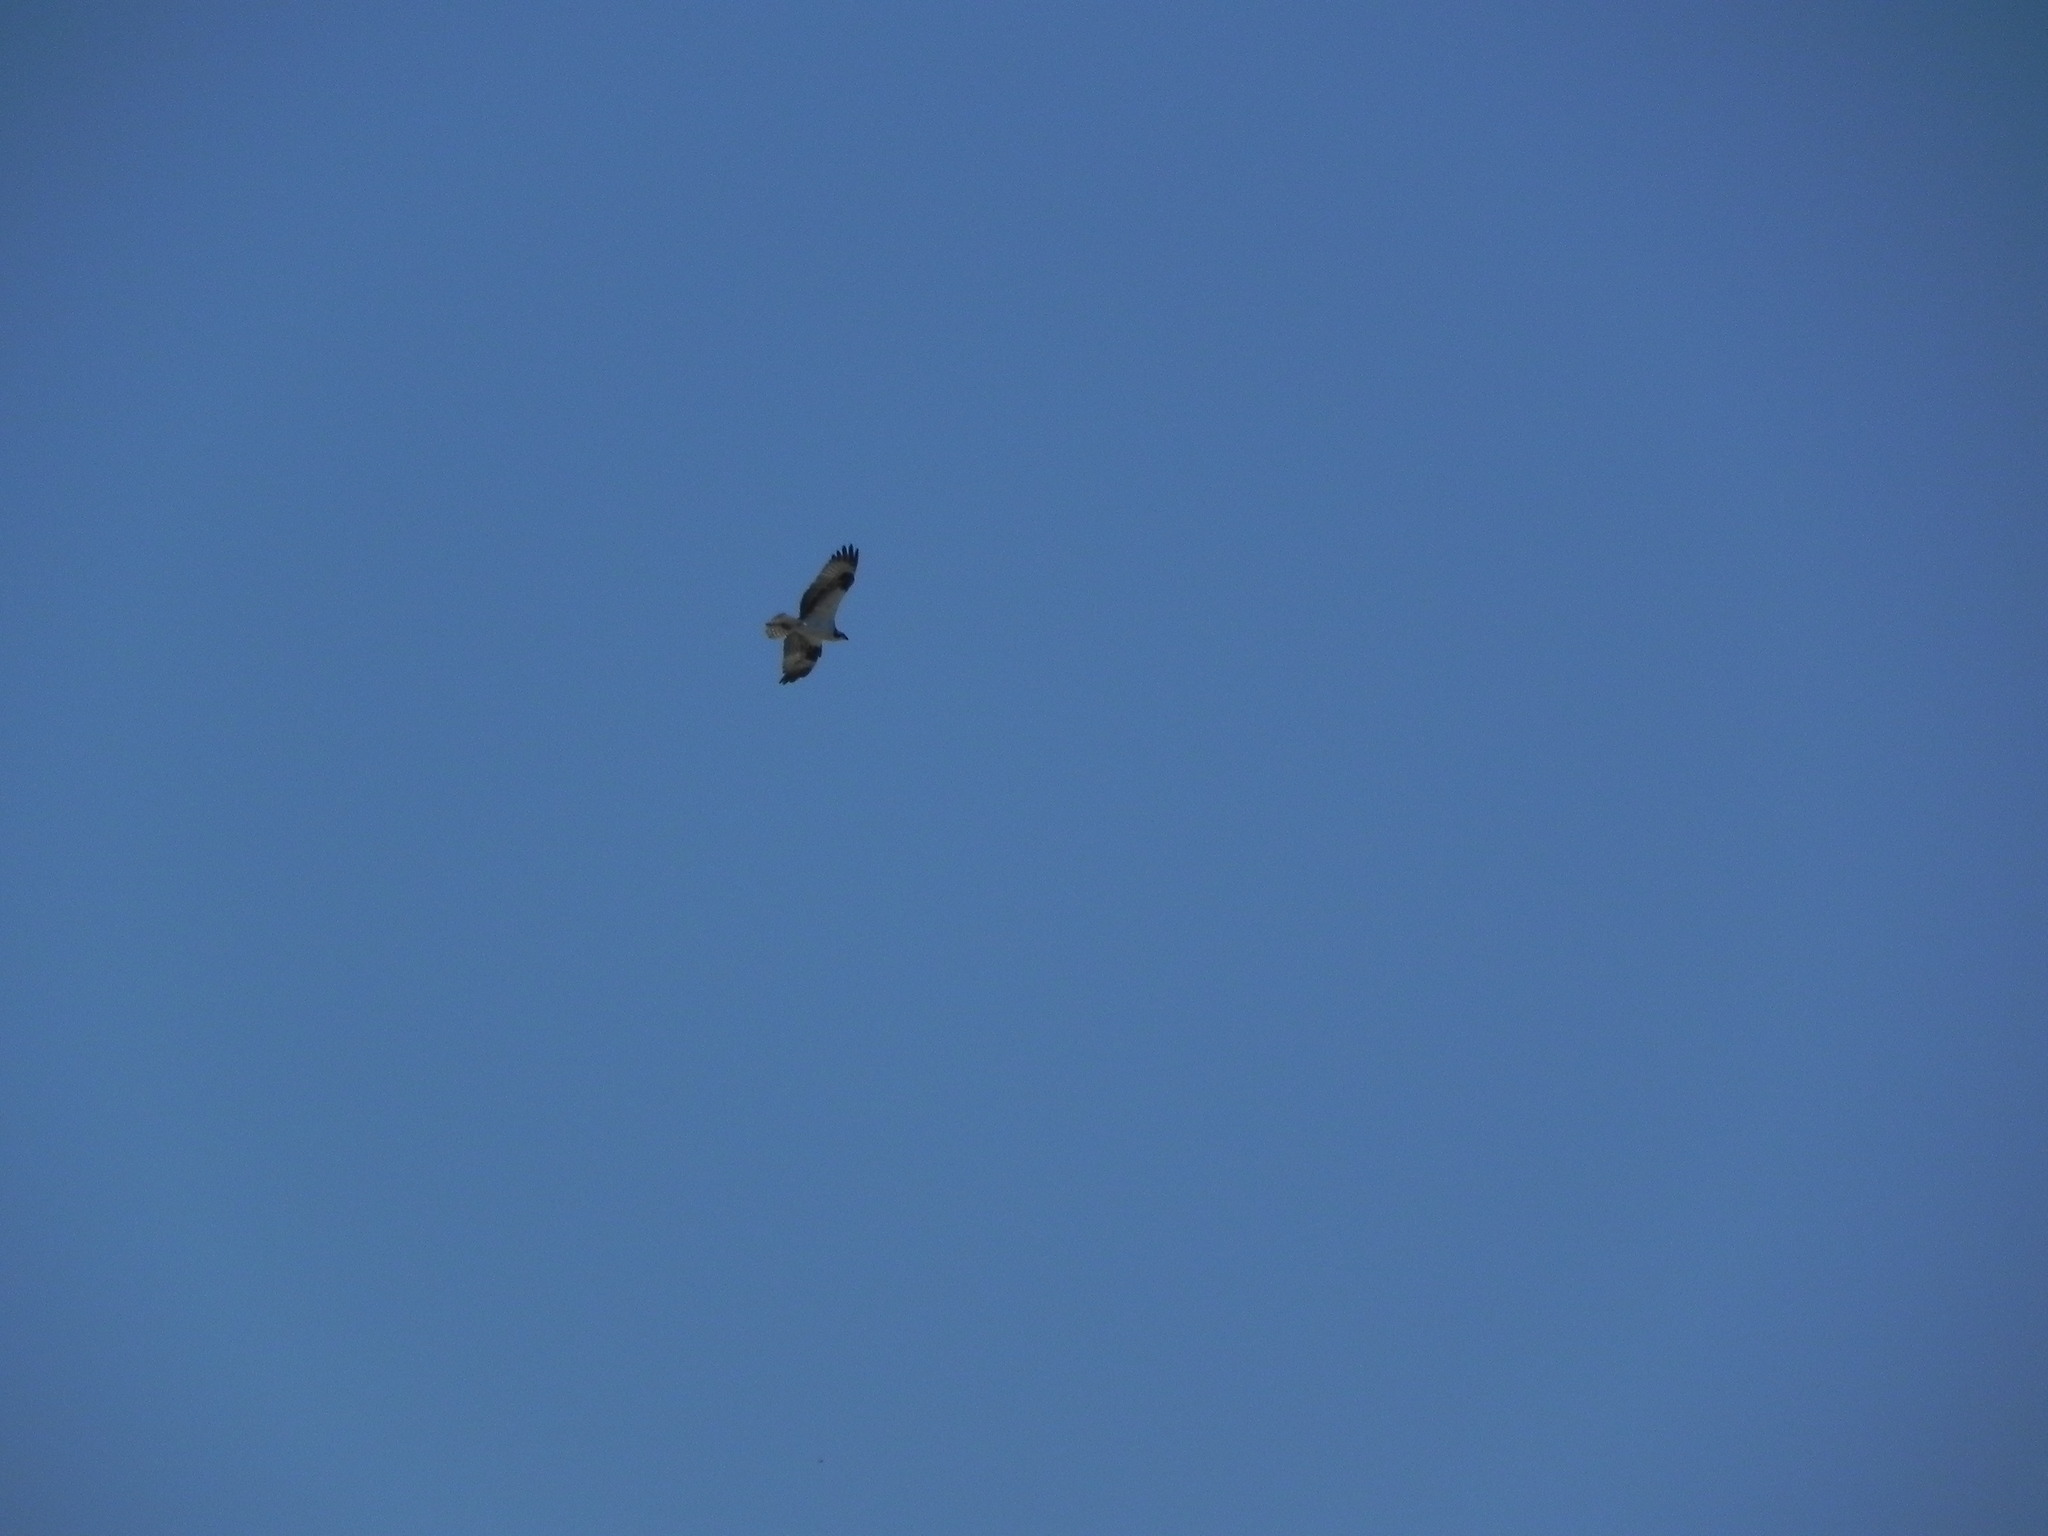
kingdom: Animalia
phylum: Chordata
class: Aves
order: Accipitriformes
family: Pandionidae
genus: Pandion
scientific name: Pandion haliaetus
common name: Osprey
